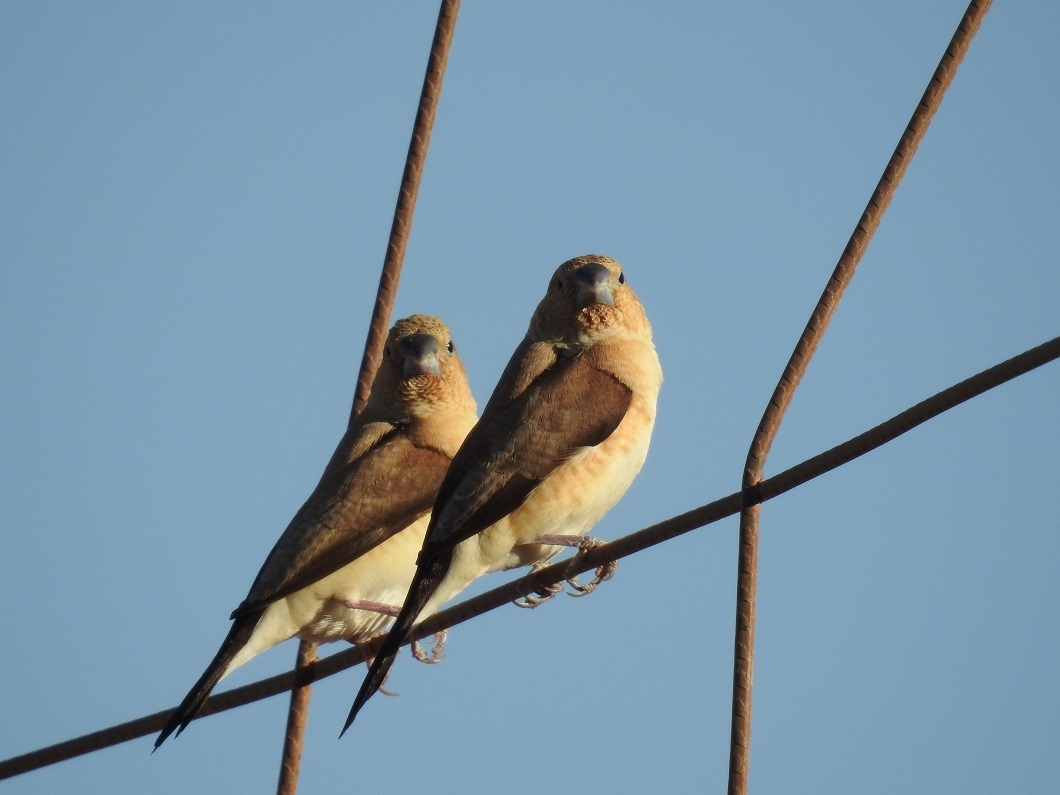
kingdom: Animalia
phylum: Chordata
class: Aves
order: Passeriformes
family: Estrildidae
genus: Euodice
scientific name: Euodice cantans
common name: African silverbill
